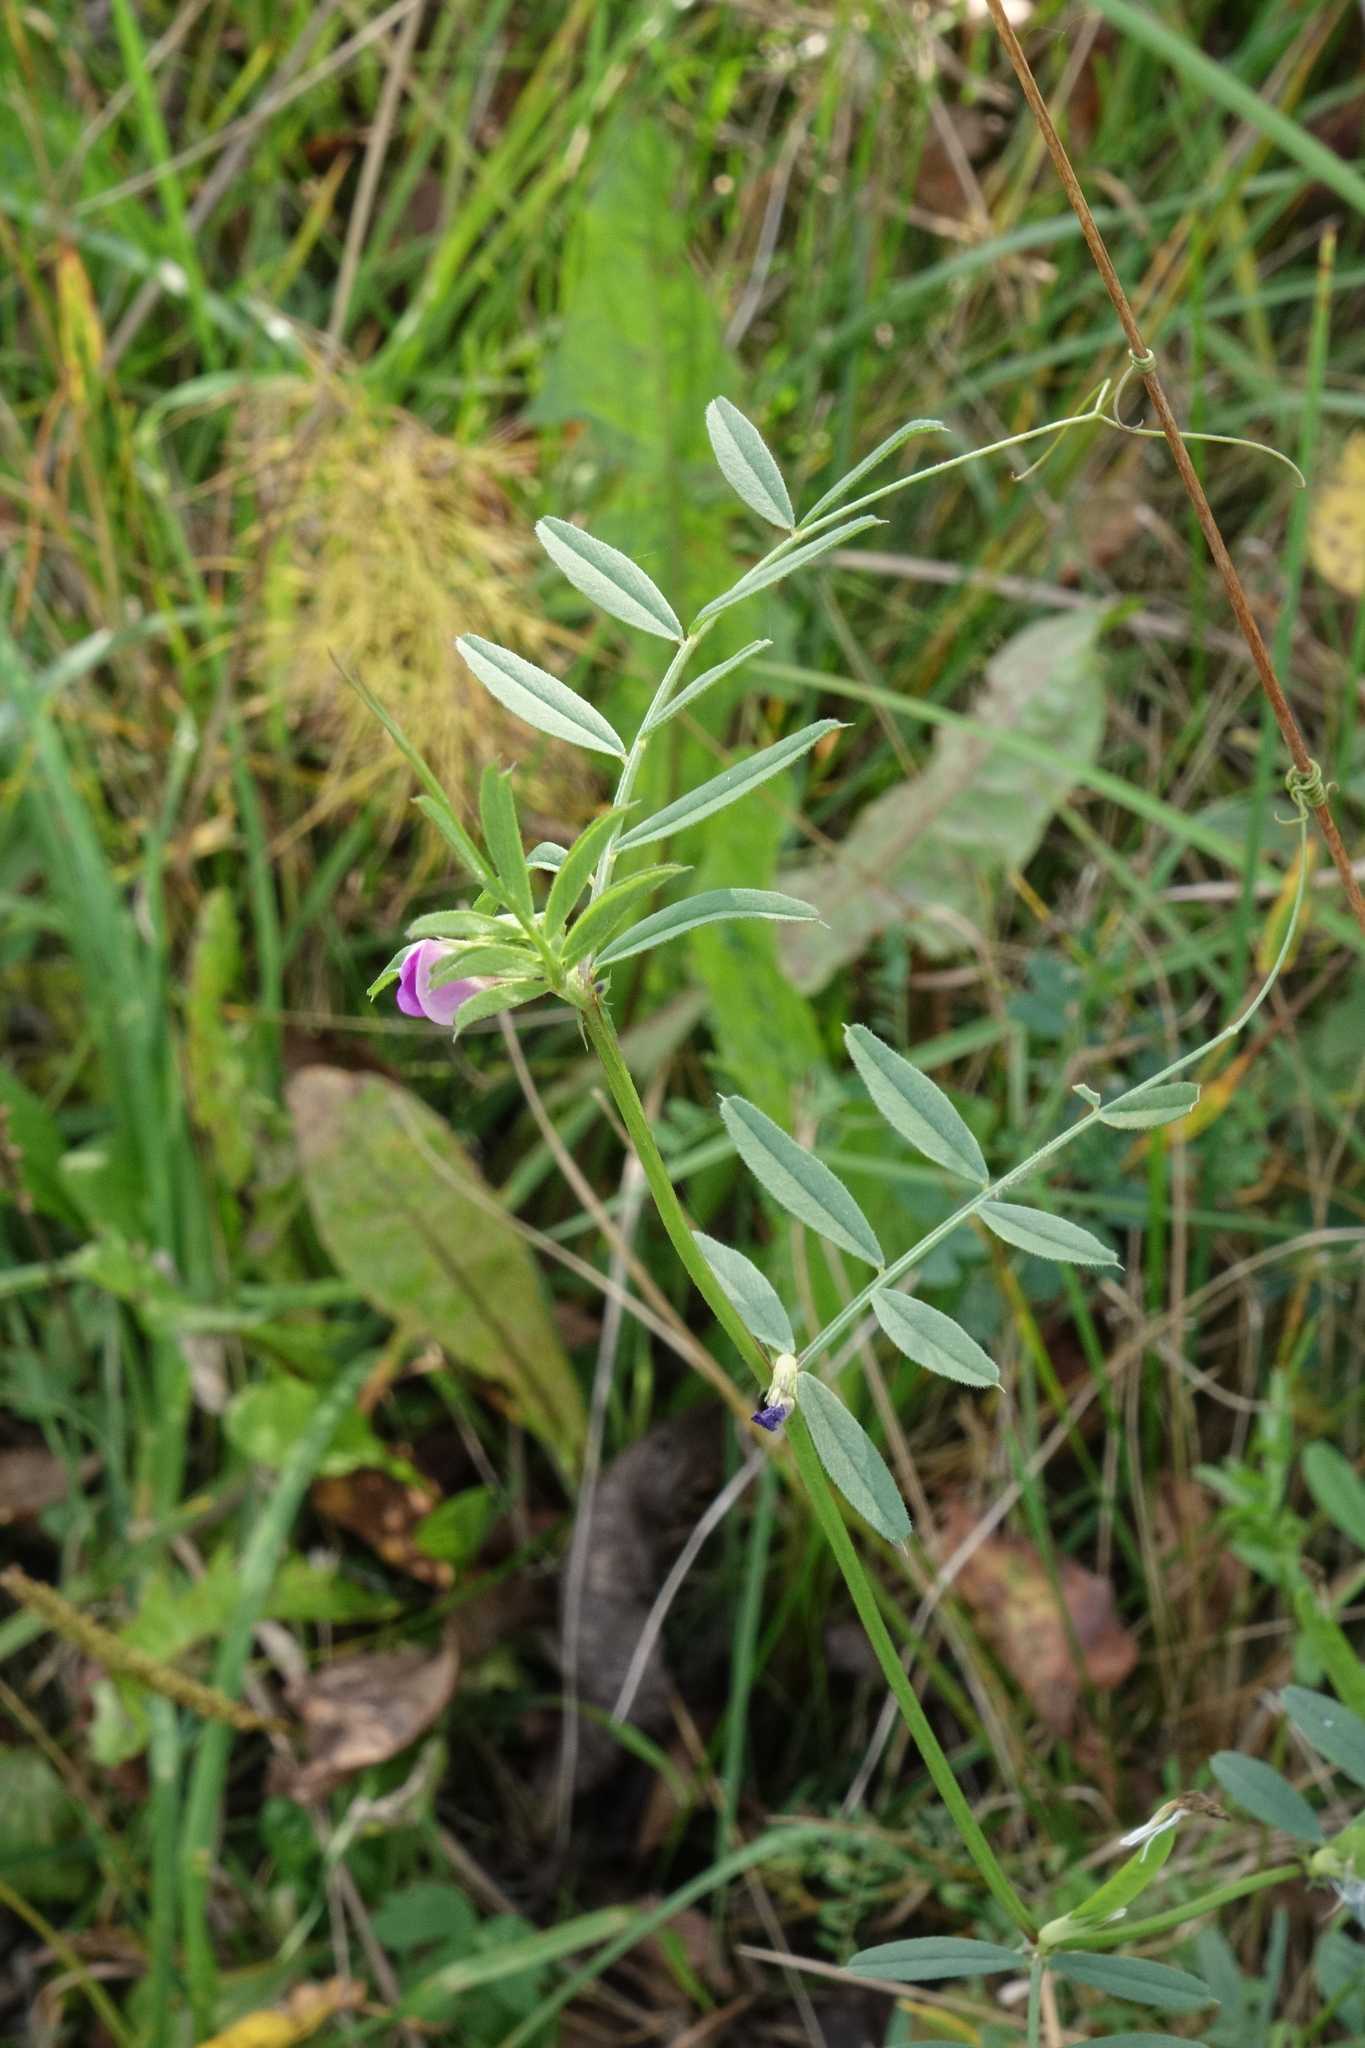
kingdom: Plantae
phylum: Tracheophyta
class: Magnoliopsida
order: Fabales
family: Fabaceae
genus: Vicia
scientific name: Vicia sativa
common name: Garden vetch
